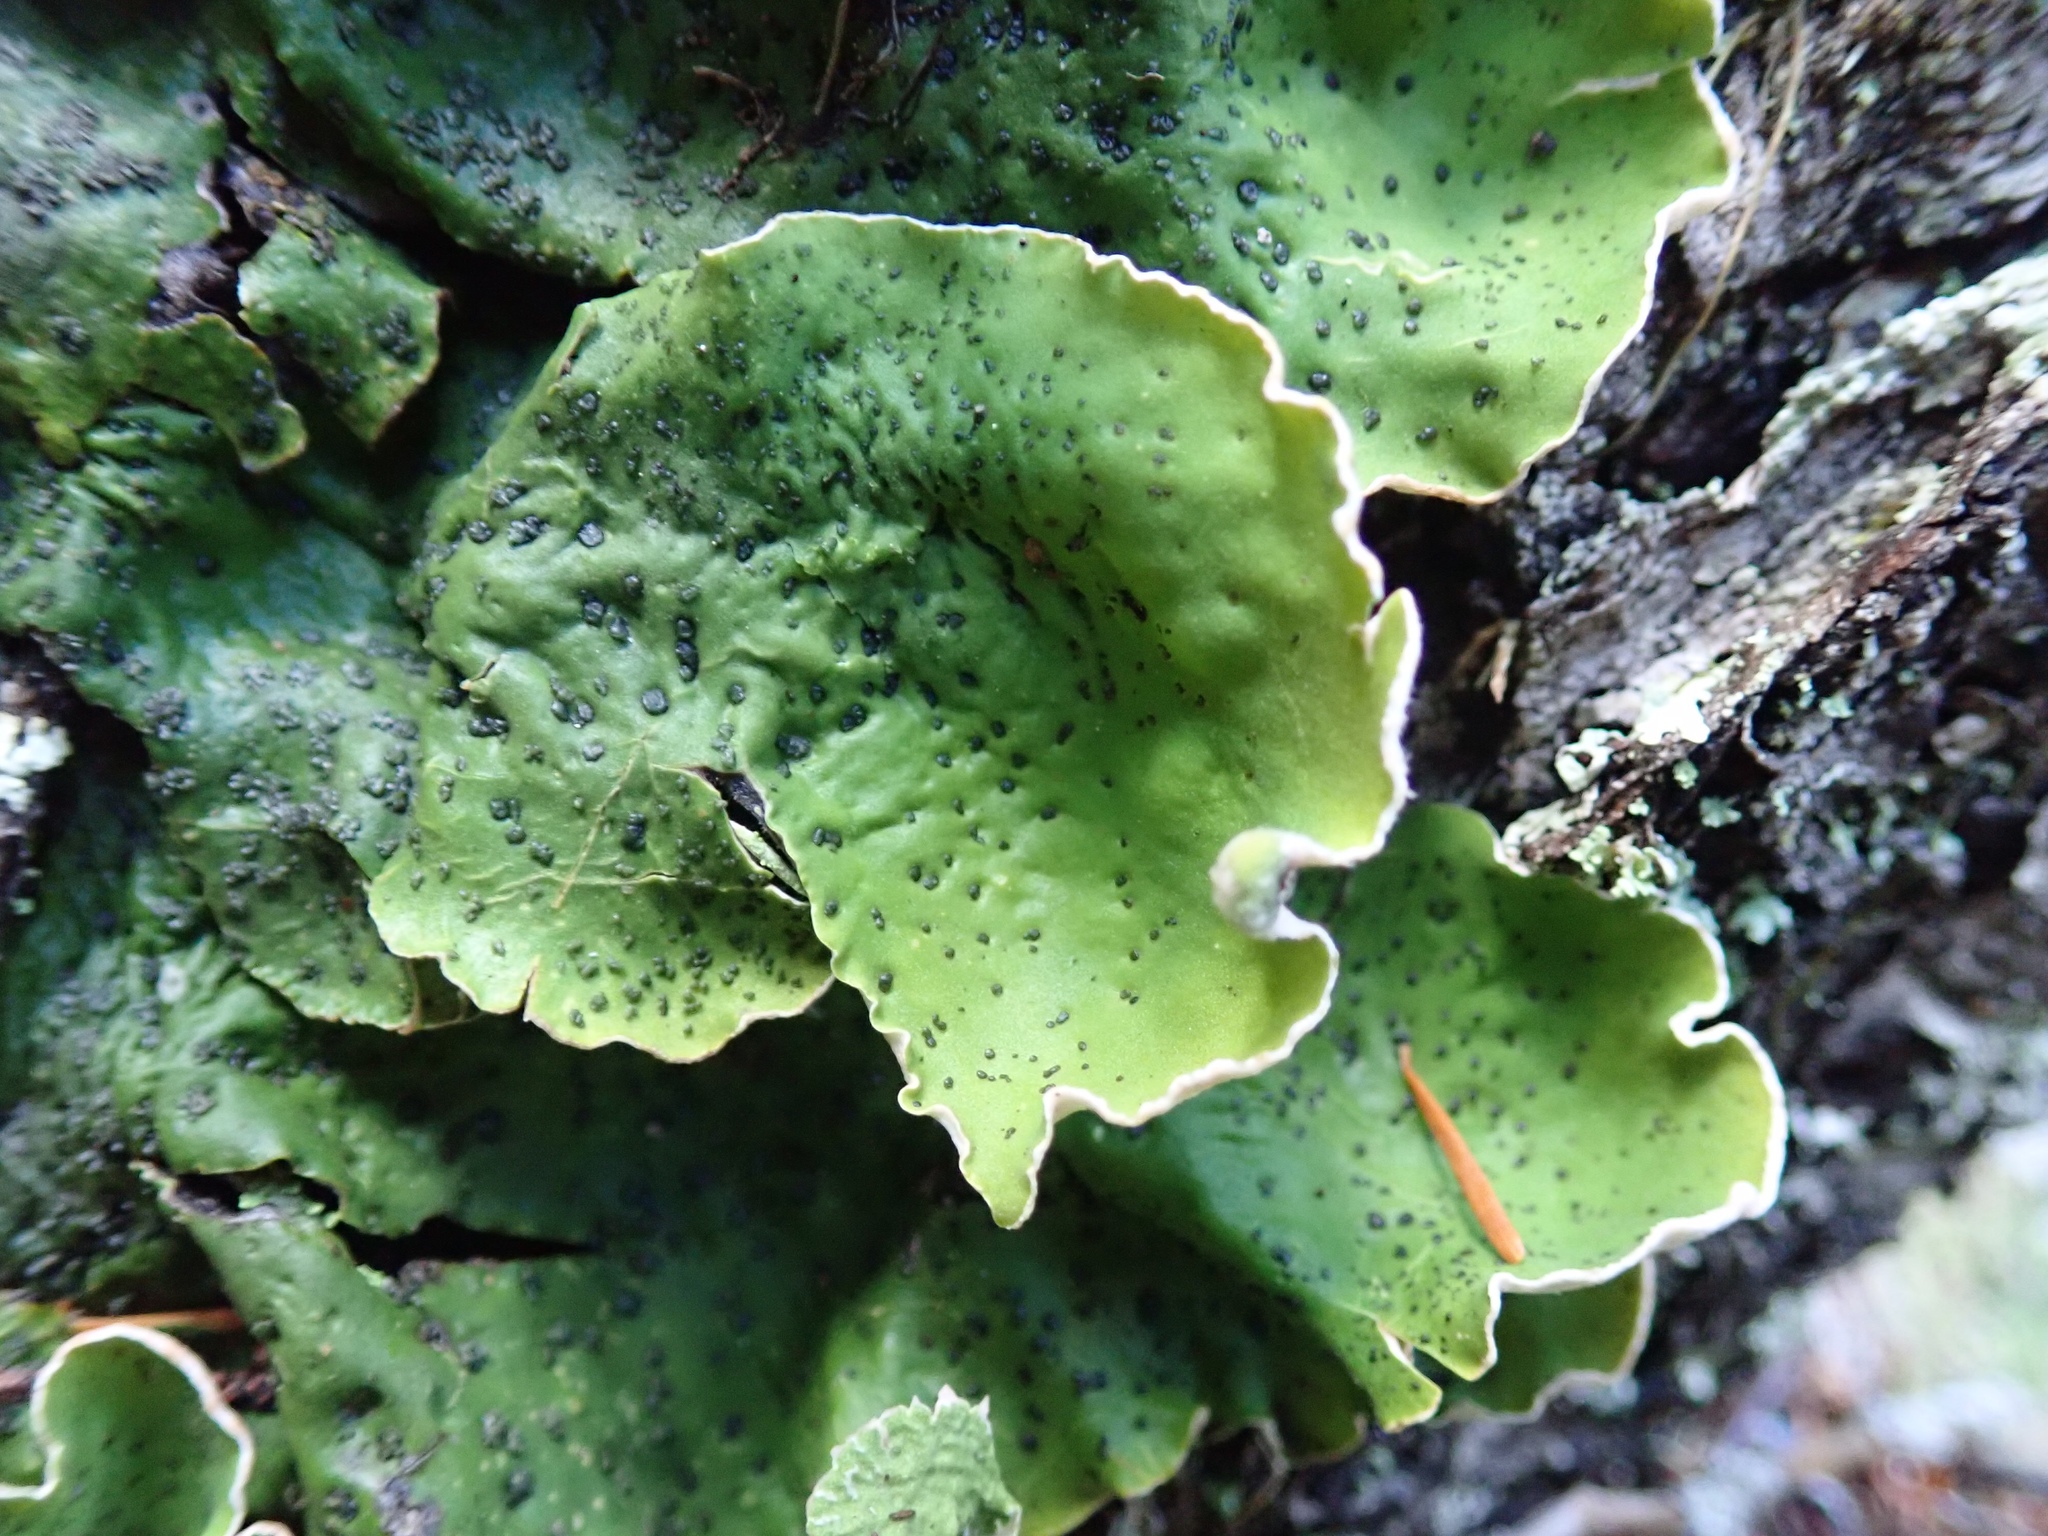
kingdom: Fungi
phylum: Ascomycota
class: Lecanoromycetes
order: Peltigerales
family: Peltigeraceae
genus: Peltigera
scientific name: Peltigera britannica
